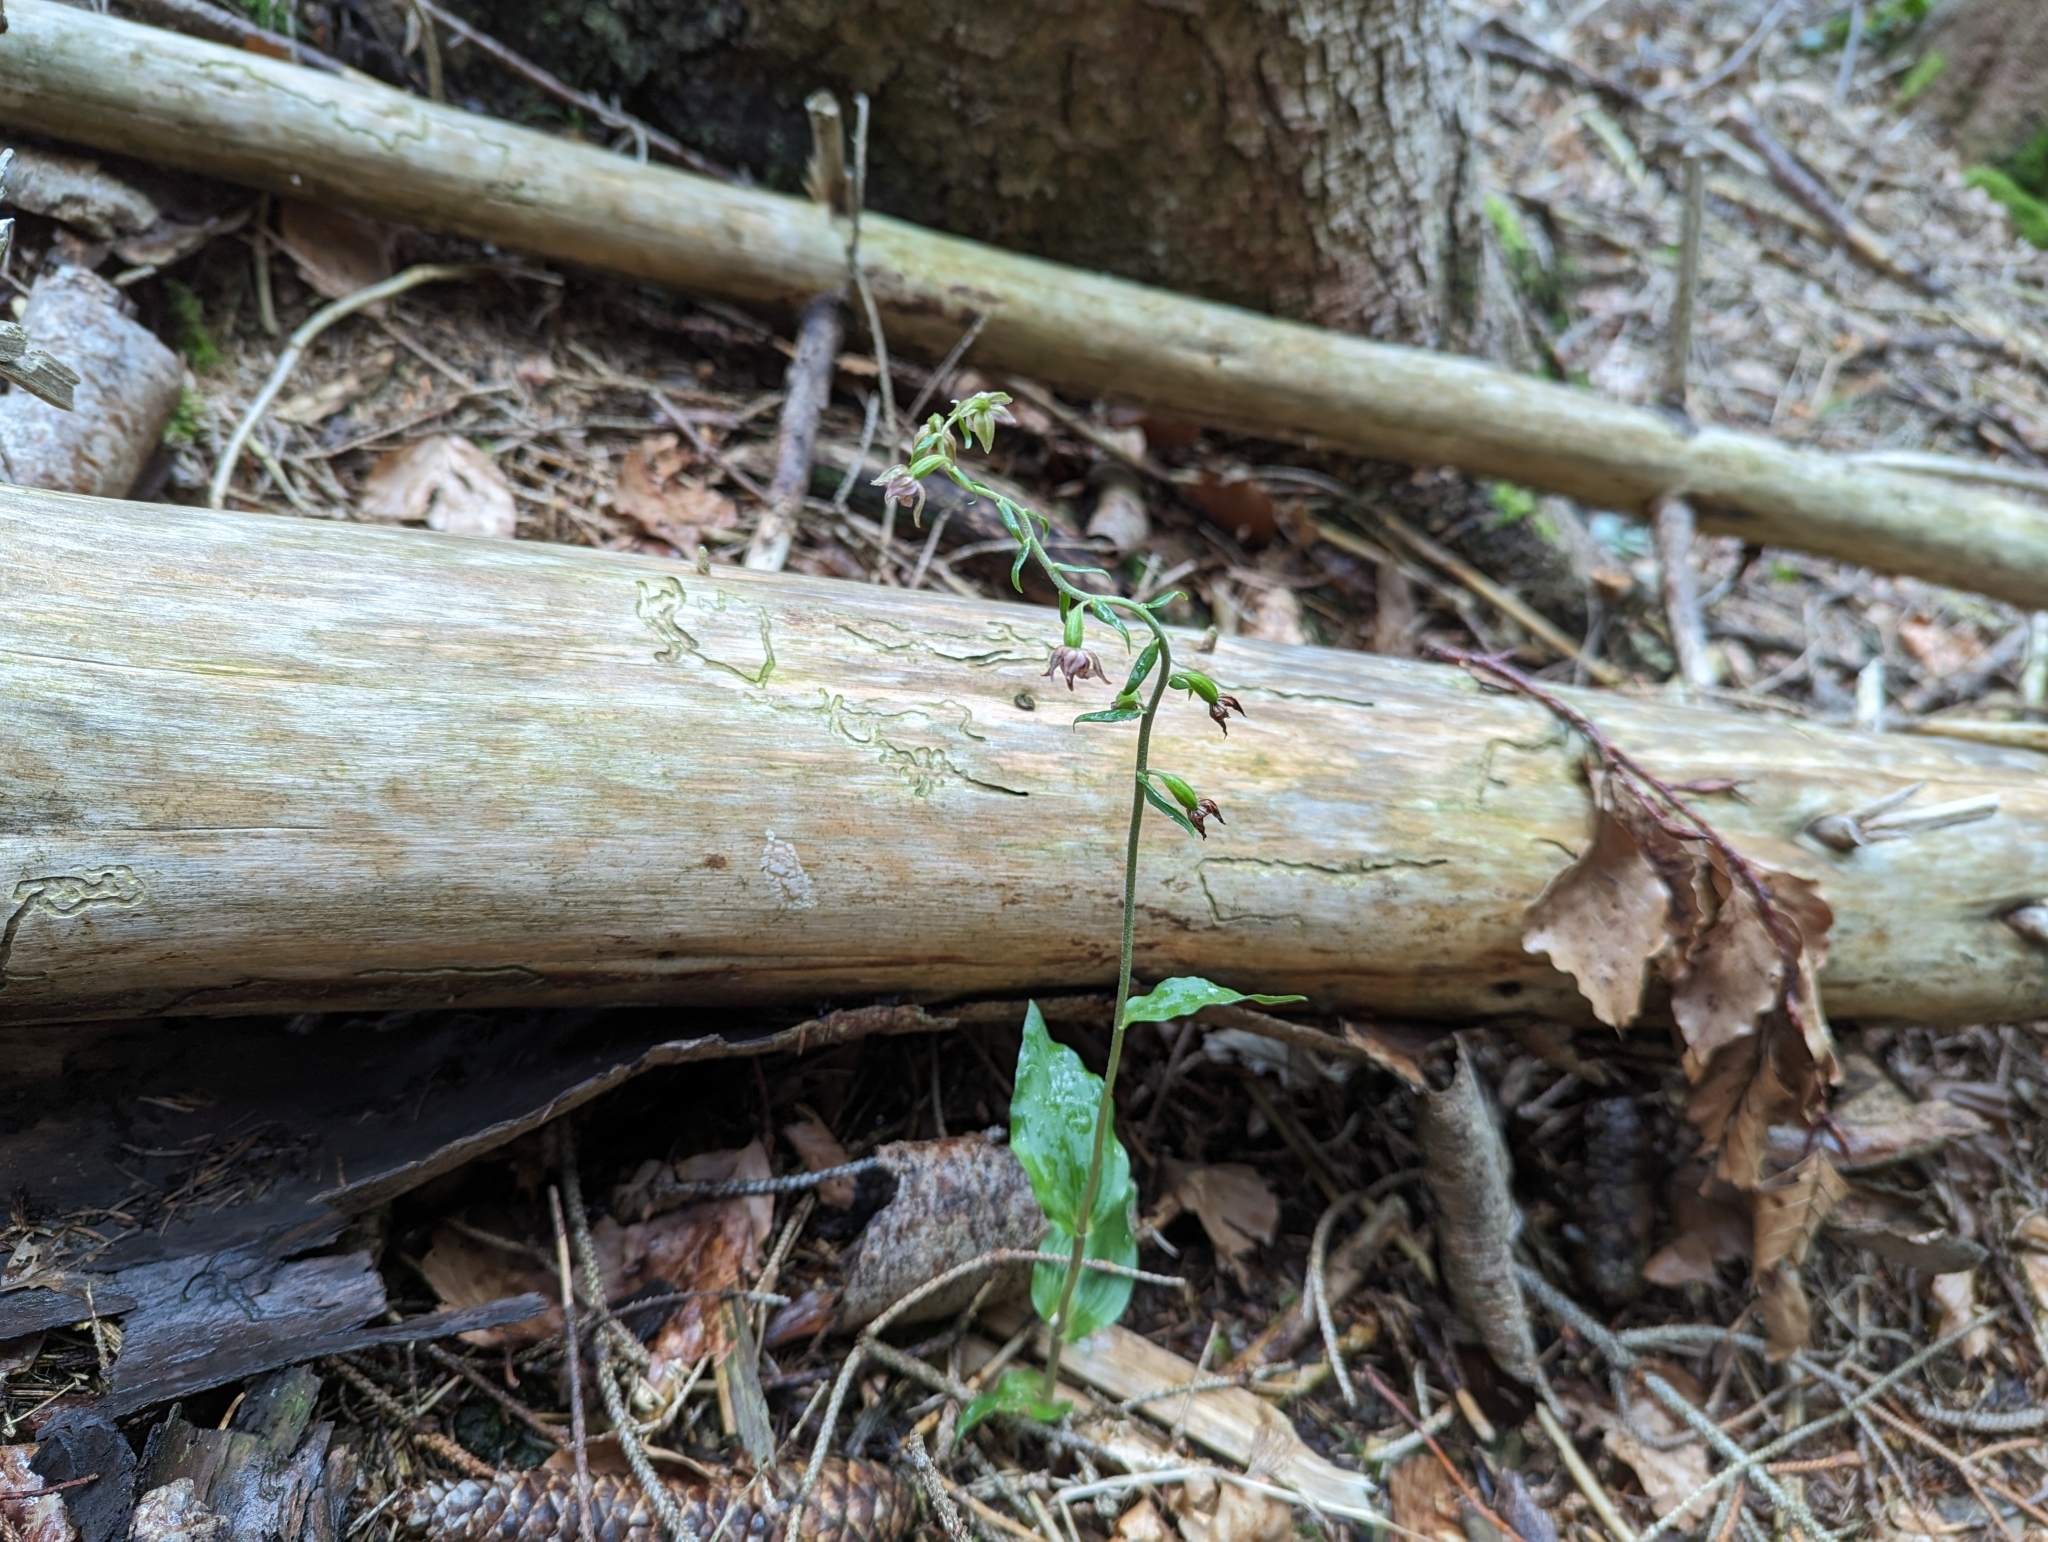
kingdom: Plantae
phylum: Tracheophyta
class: Liliopsida
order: Asparagales
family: Orchidaceae
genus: Epipactis
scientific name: Epipactis helleborine
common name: Broad-leaved helleborine
